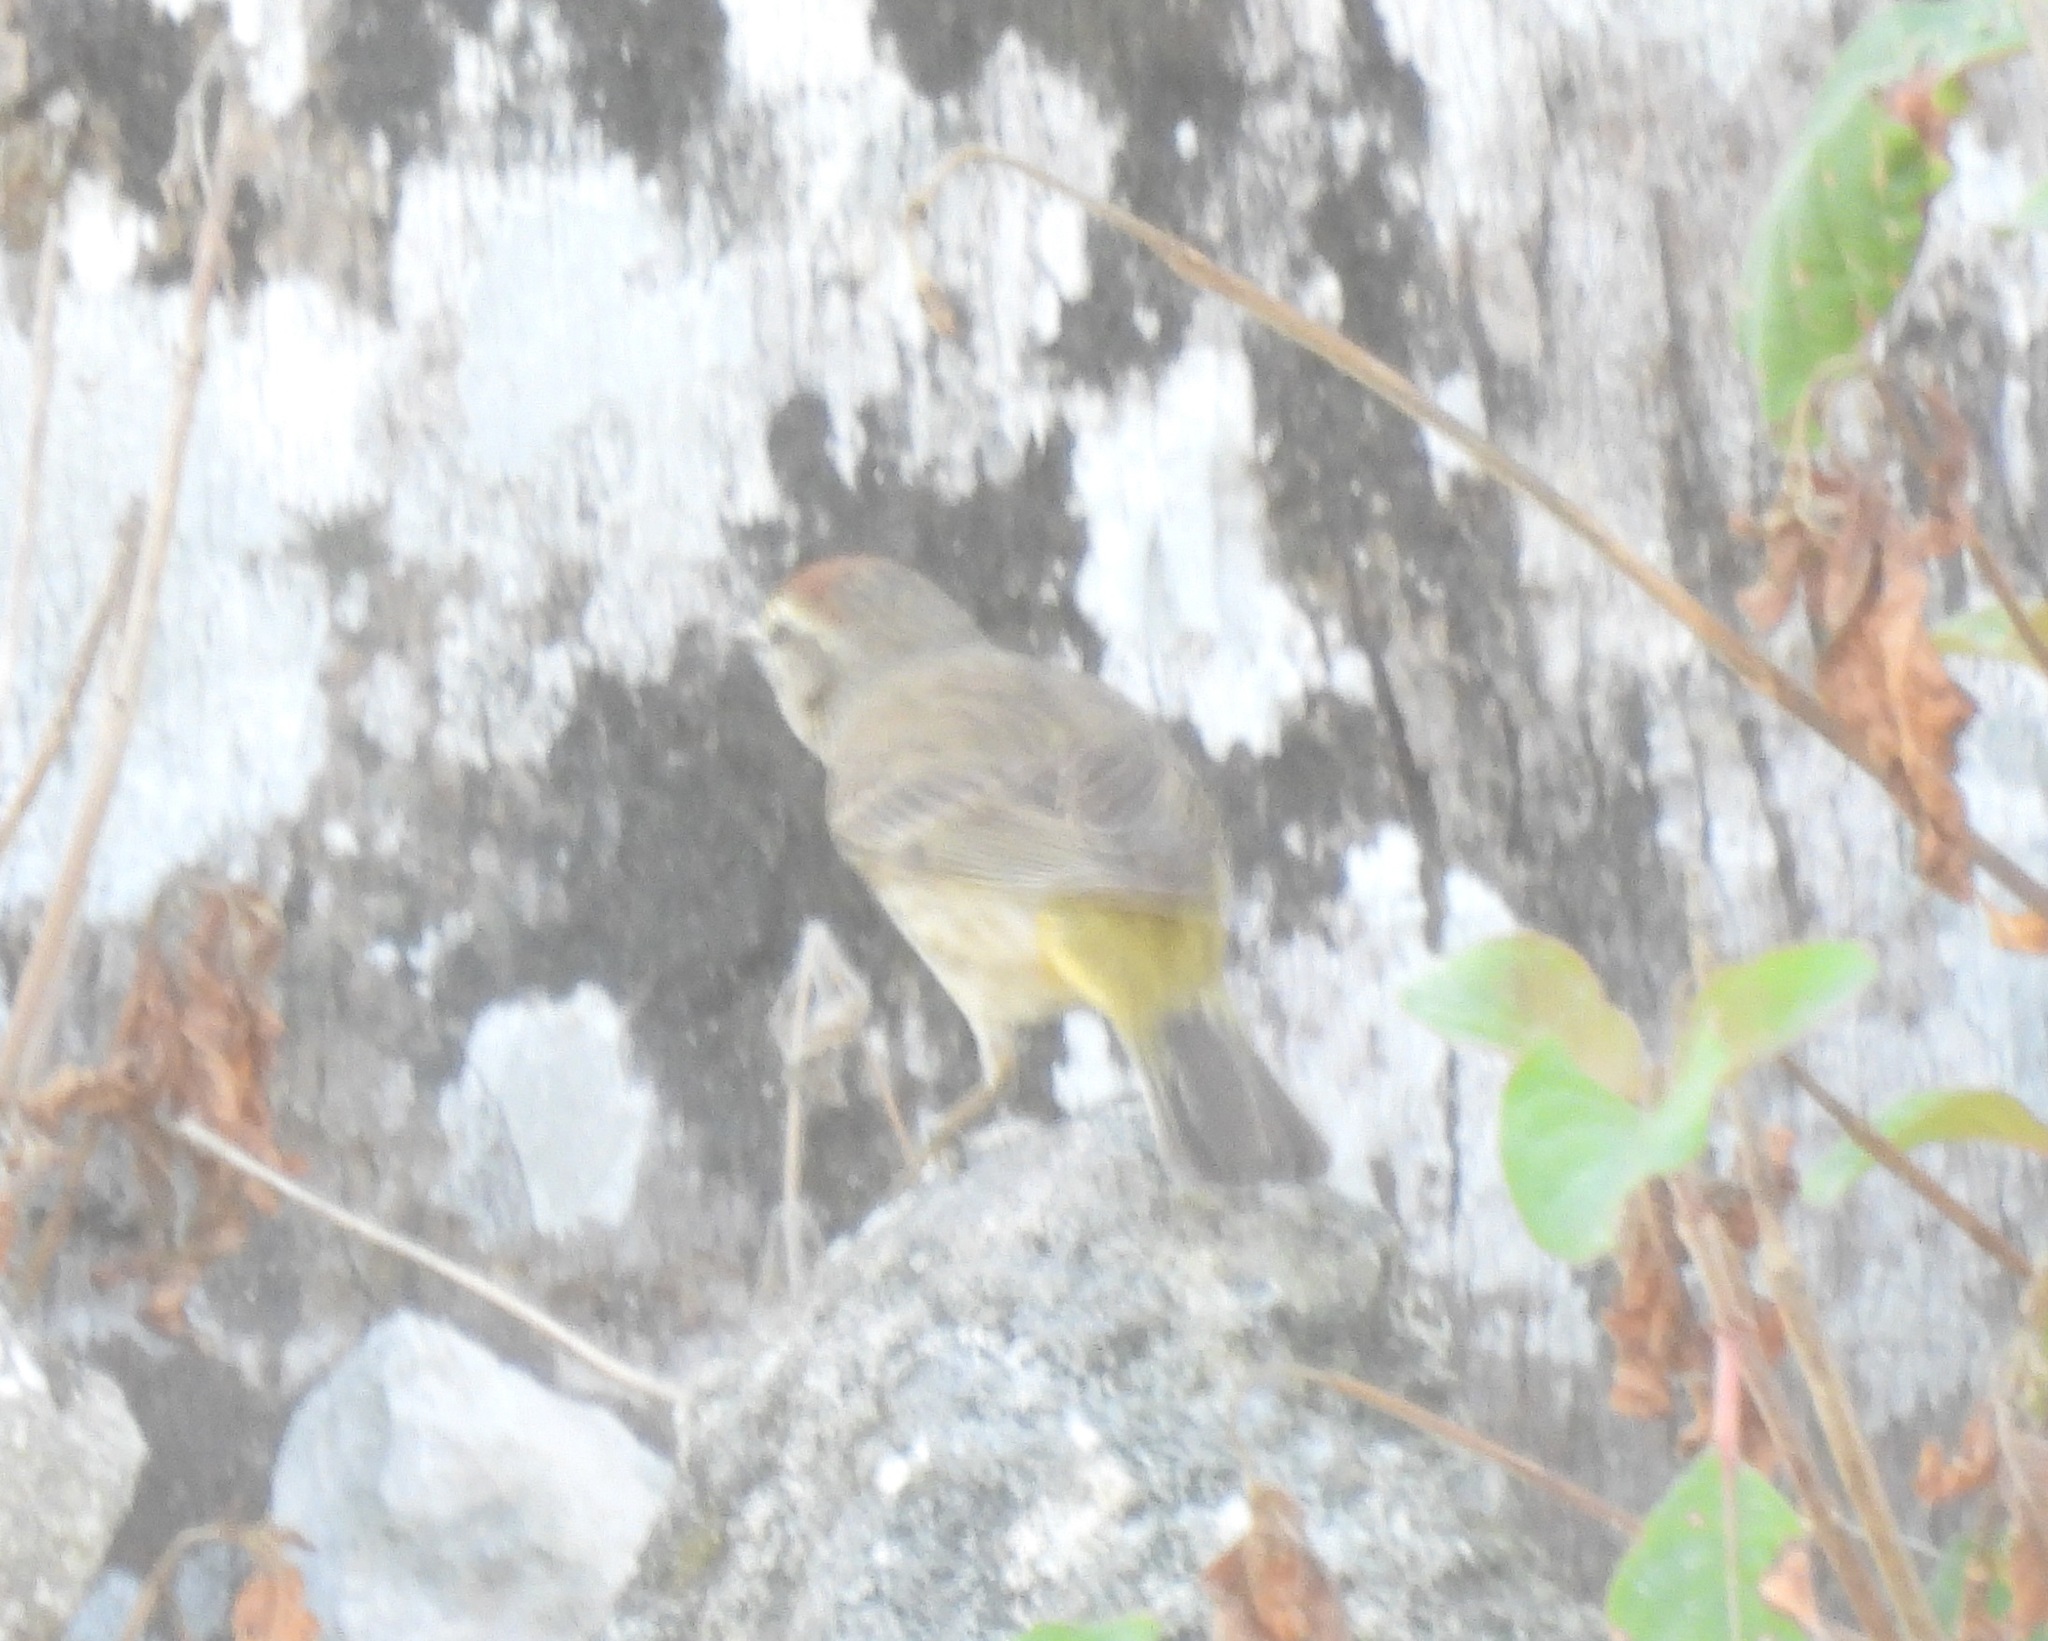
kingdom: Animalia
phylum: Chordata
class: Aves
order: Passeriformes
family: Parulidae
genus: Setophaga
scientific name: Setophaga palmarum
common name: Palm warbler
